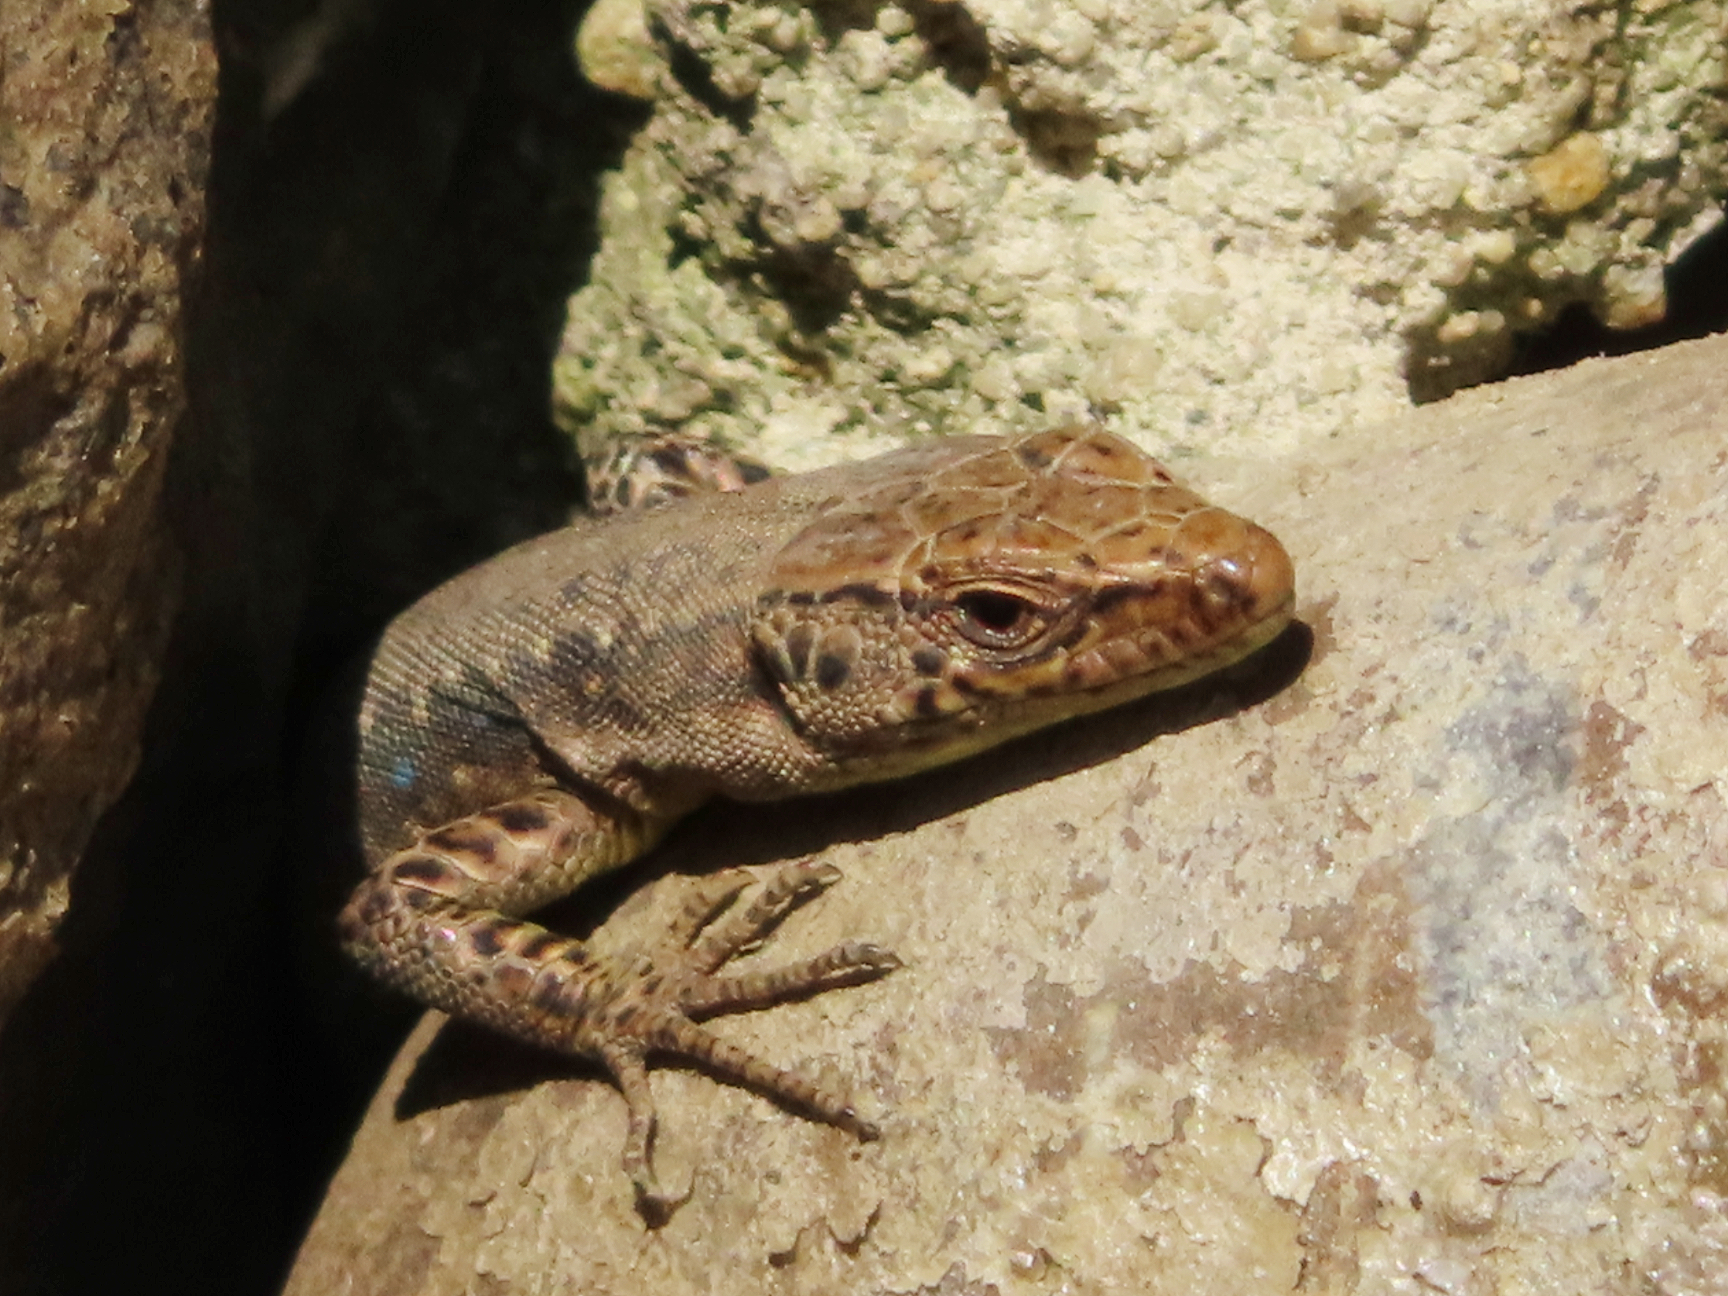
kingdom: Animalia
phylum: Chordata
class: Squamata
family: Lacertidae
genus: Darevskia
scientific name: Darevskia mixta
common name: Ajarian lizard
